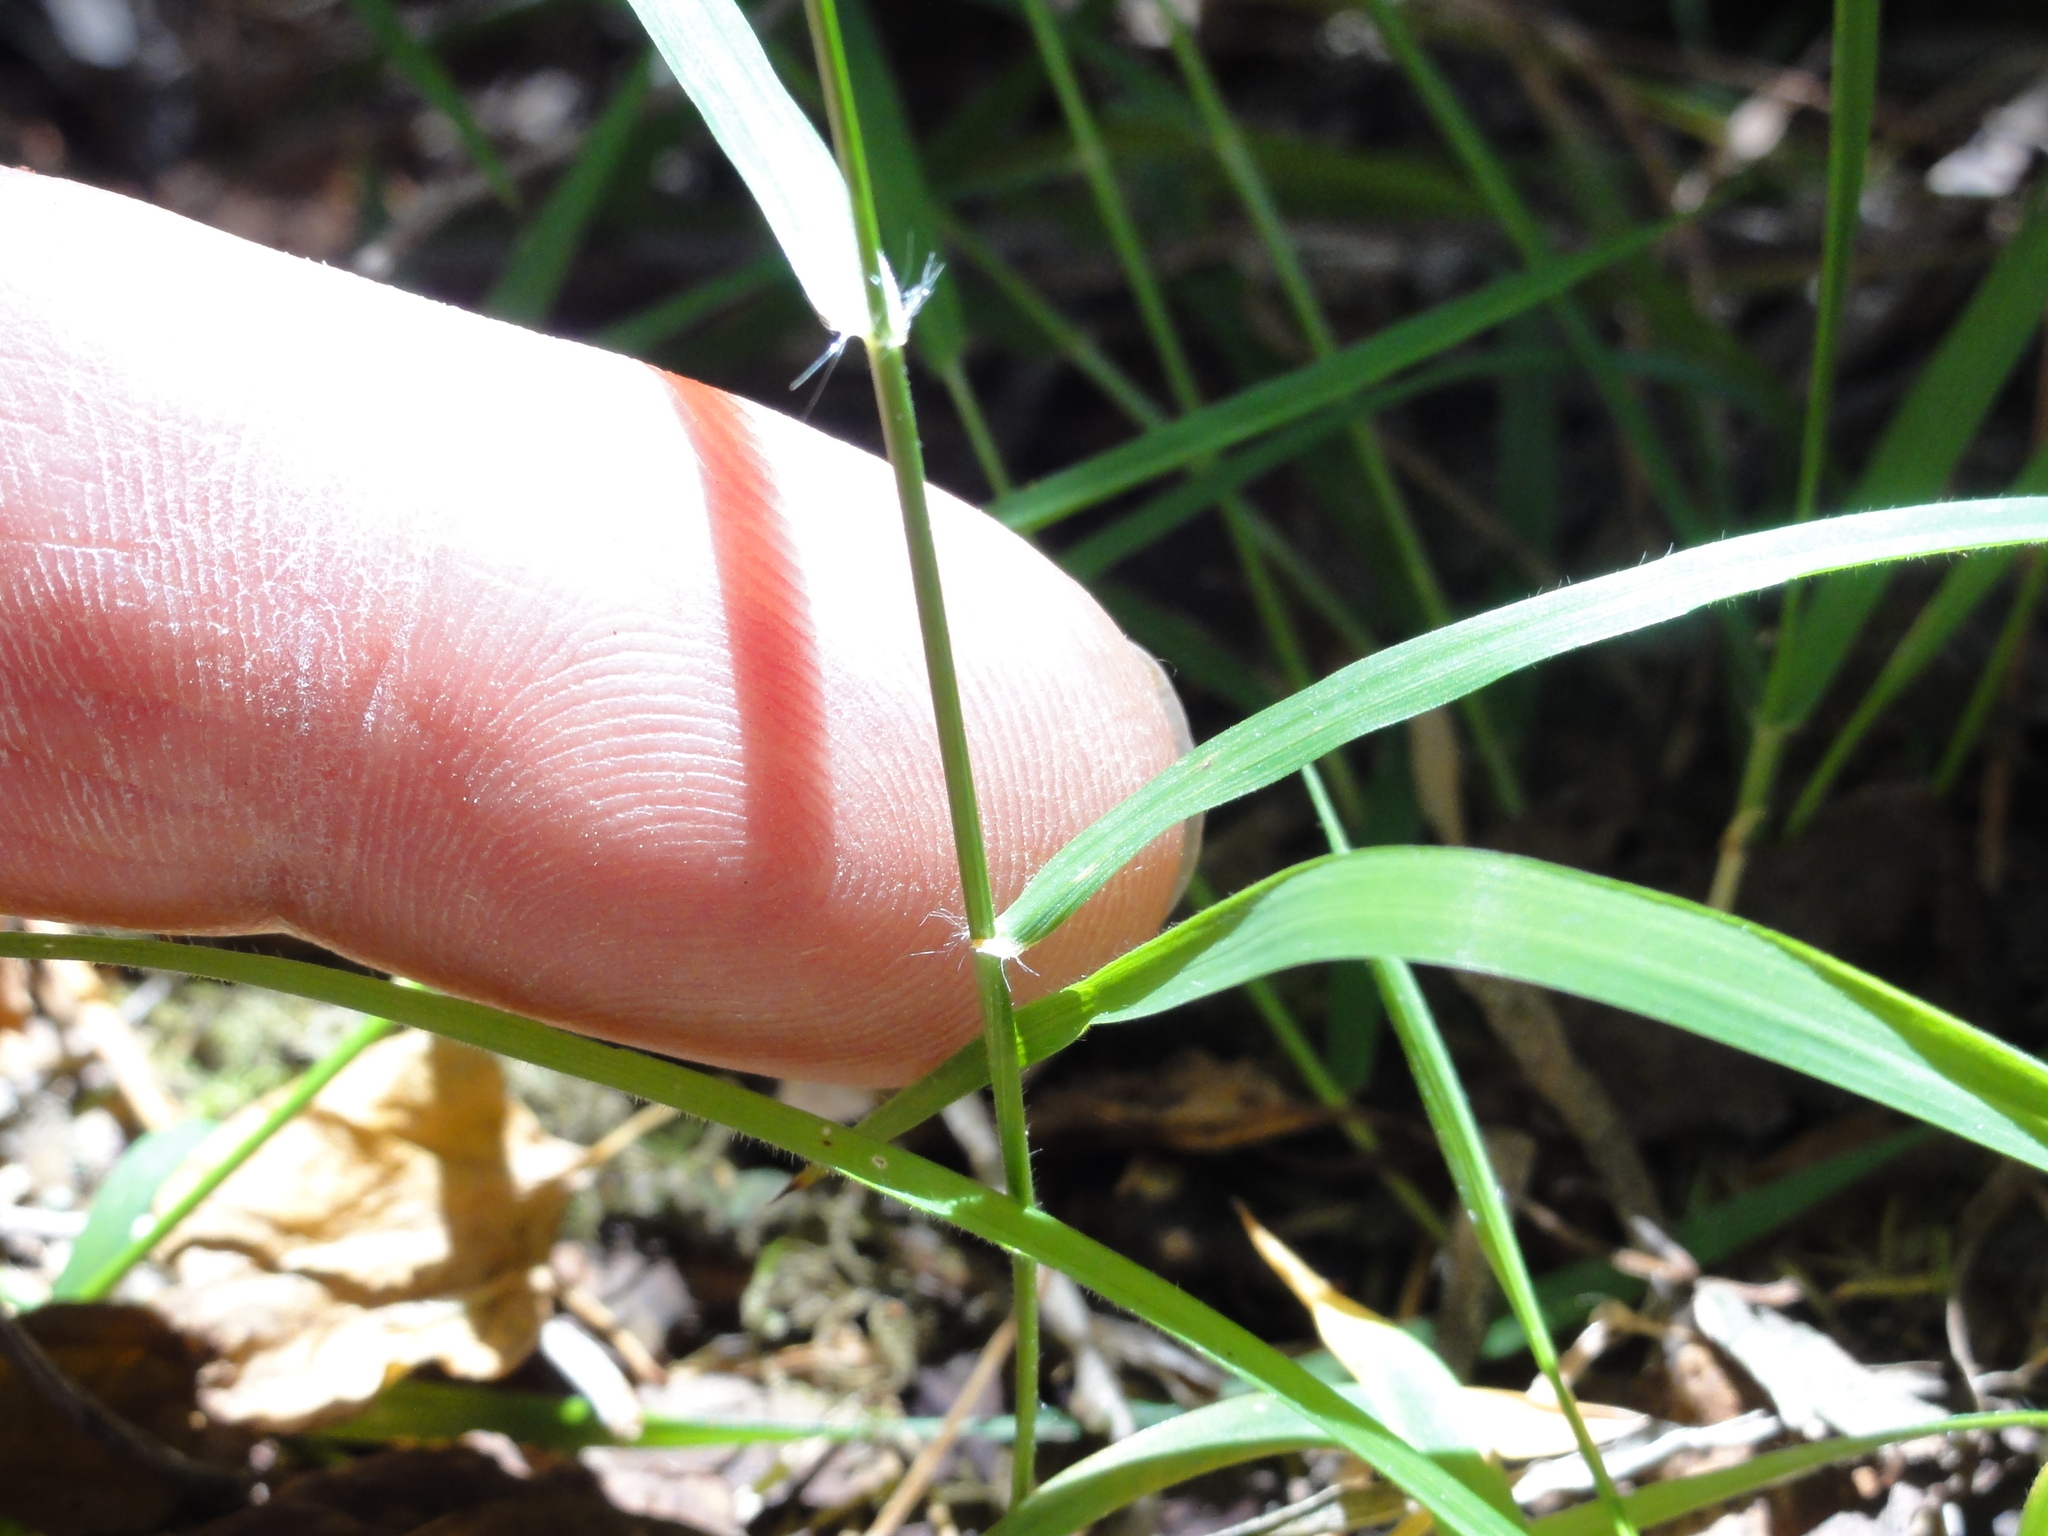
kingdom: Plantae
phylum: Tracheophyta
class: Liliopsida
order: Poales
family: Poaceae
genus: Microlaena
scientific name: Microlaena stipoides
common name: Meadow ricegrass
